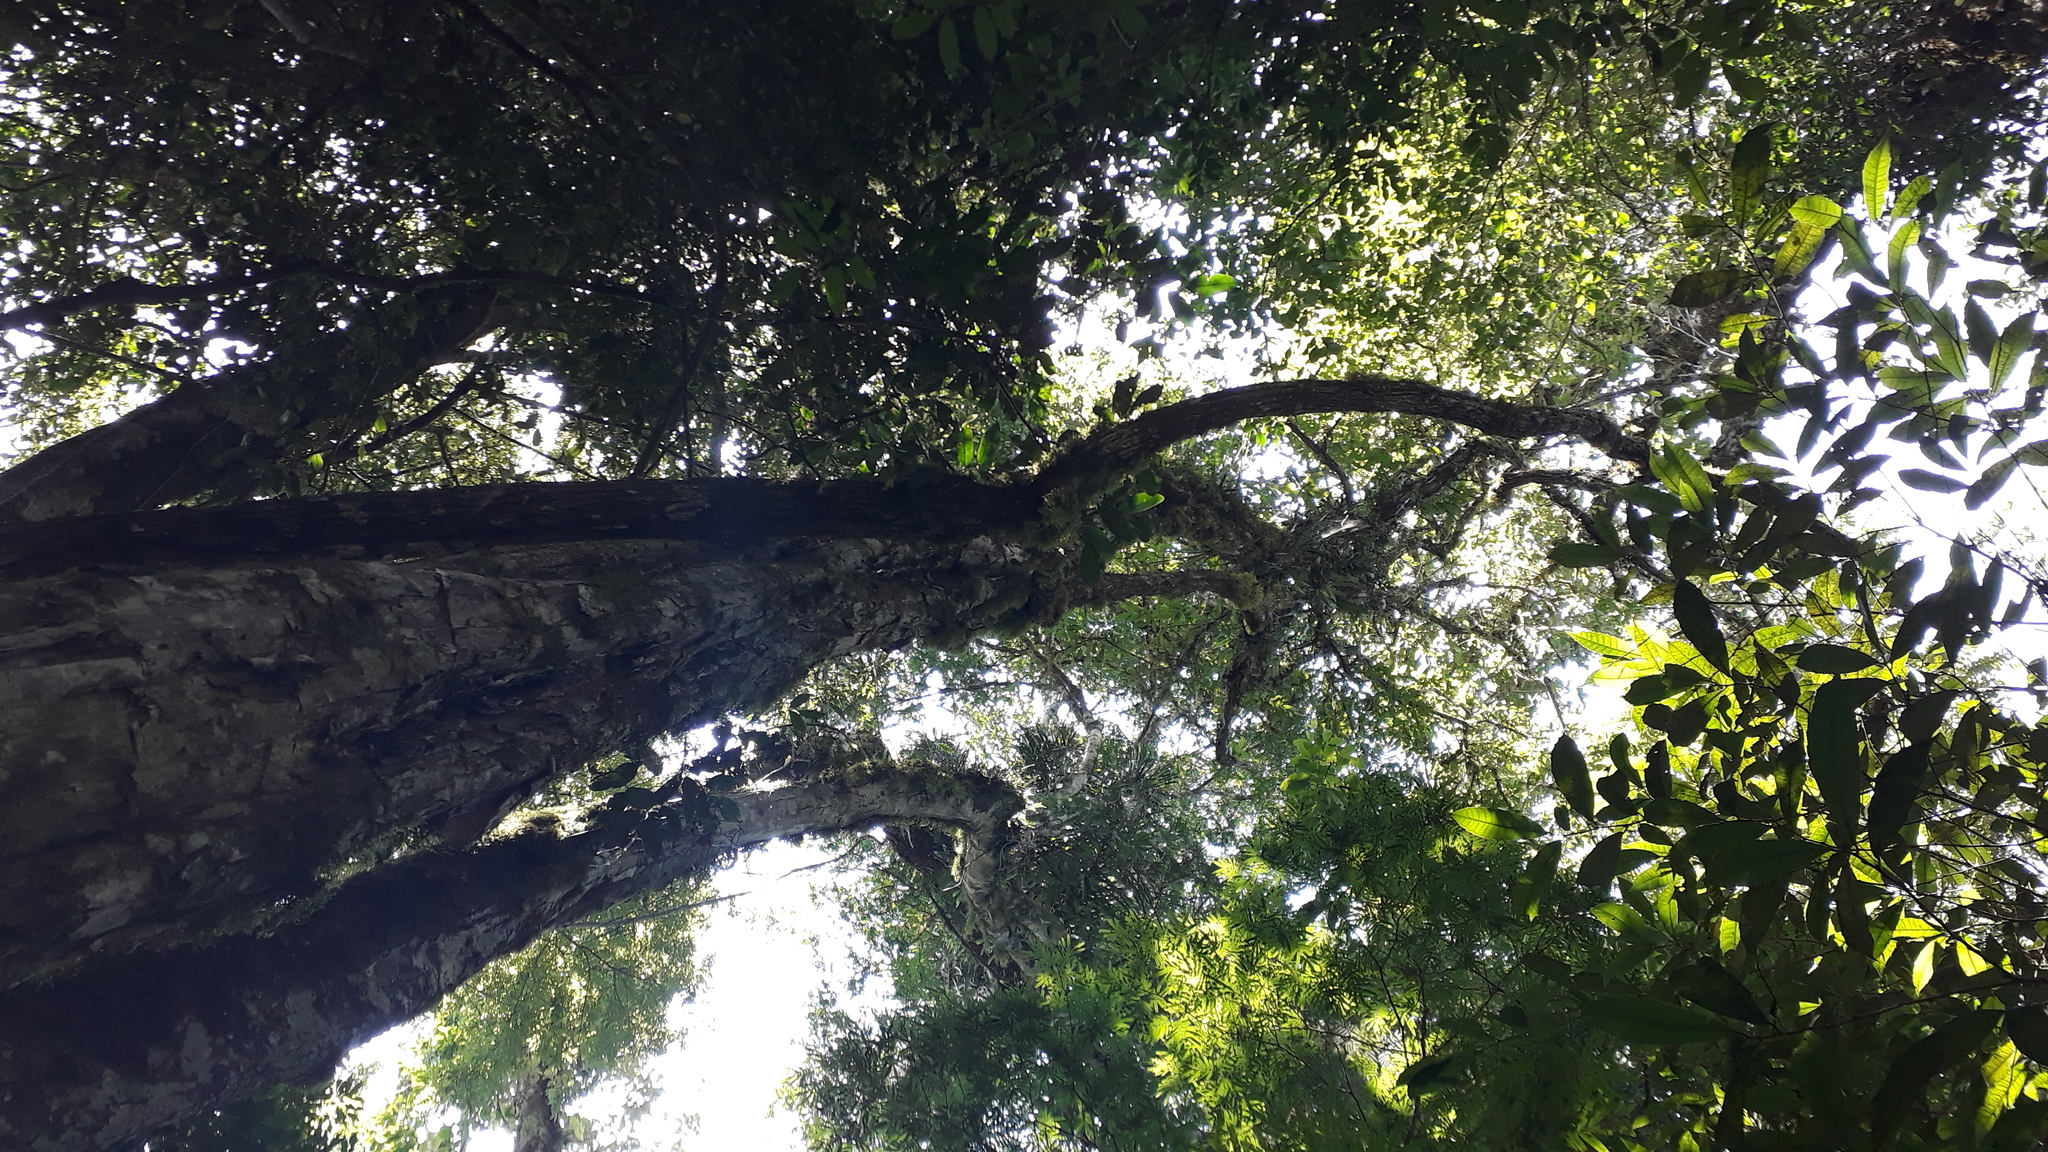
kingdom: Plantae
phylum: Tracheophyta
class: Magnoliopsida
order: Myrtales
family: Myrtaceae
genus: Campomanesia
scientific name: Campomanesia guazumifolia
